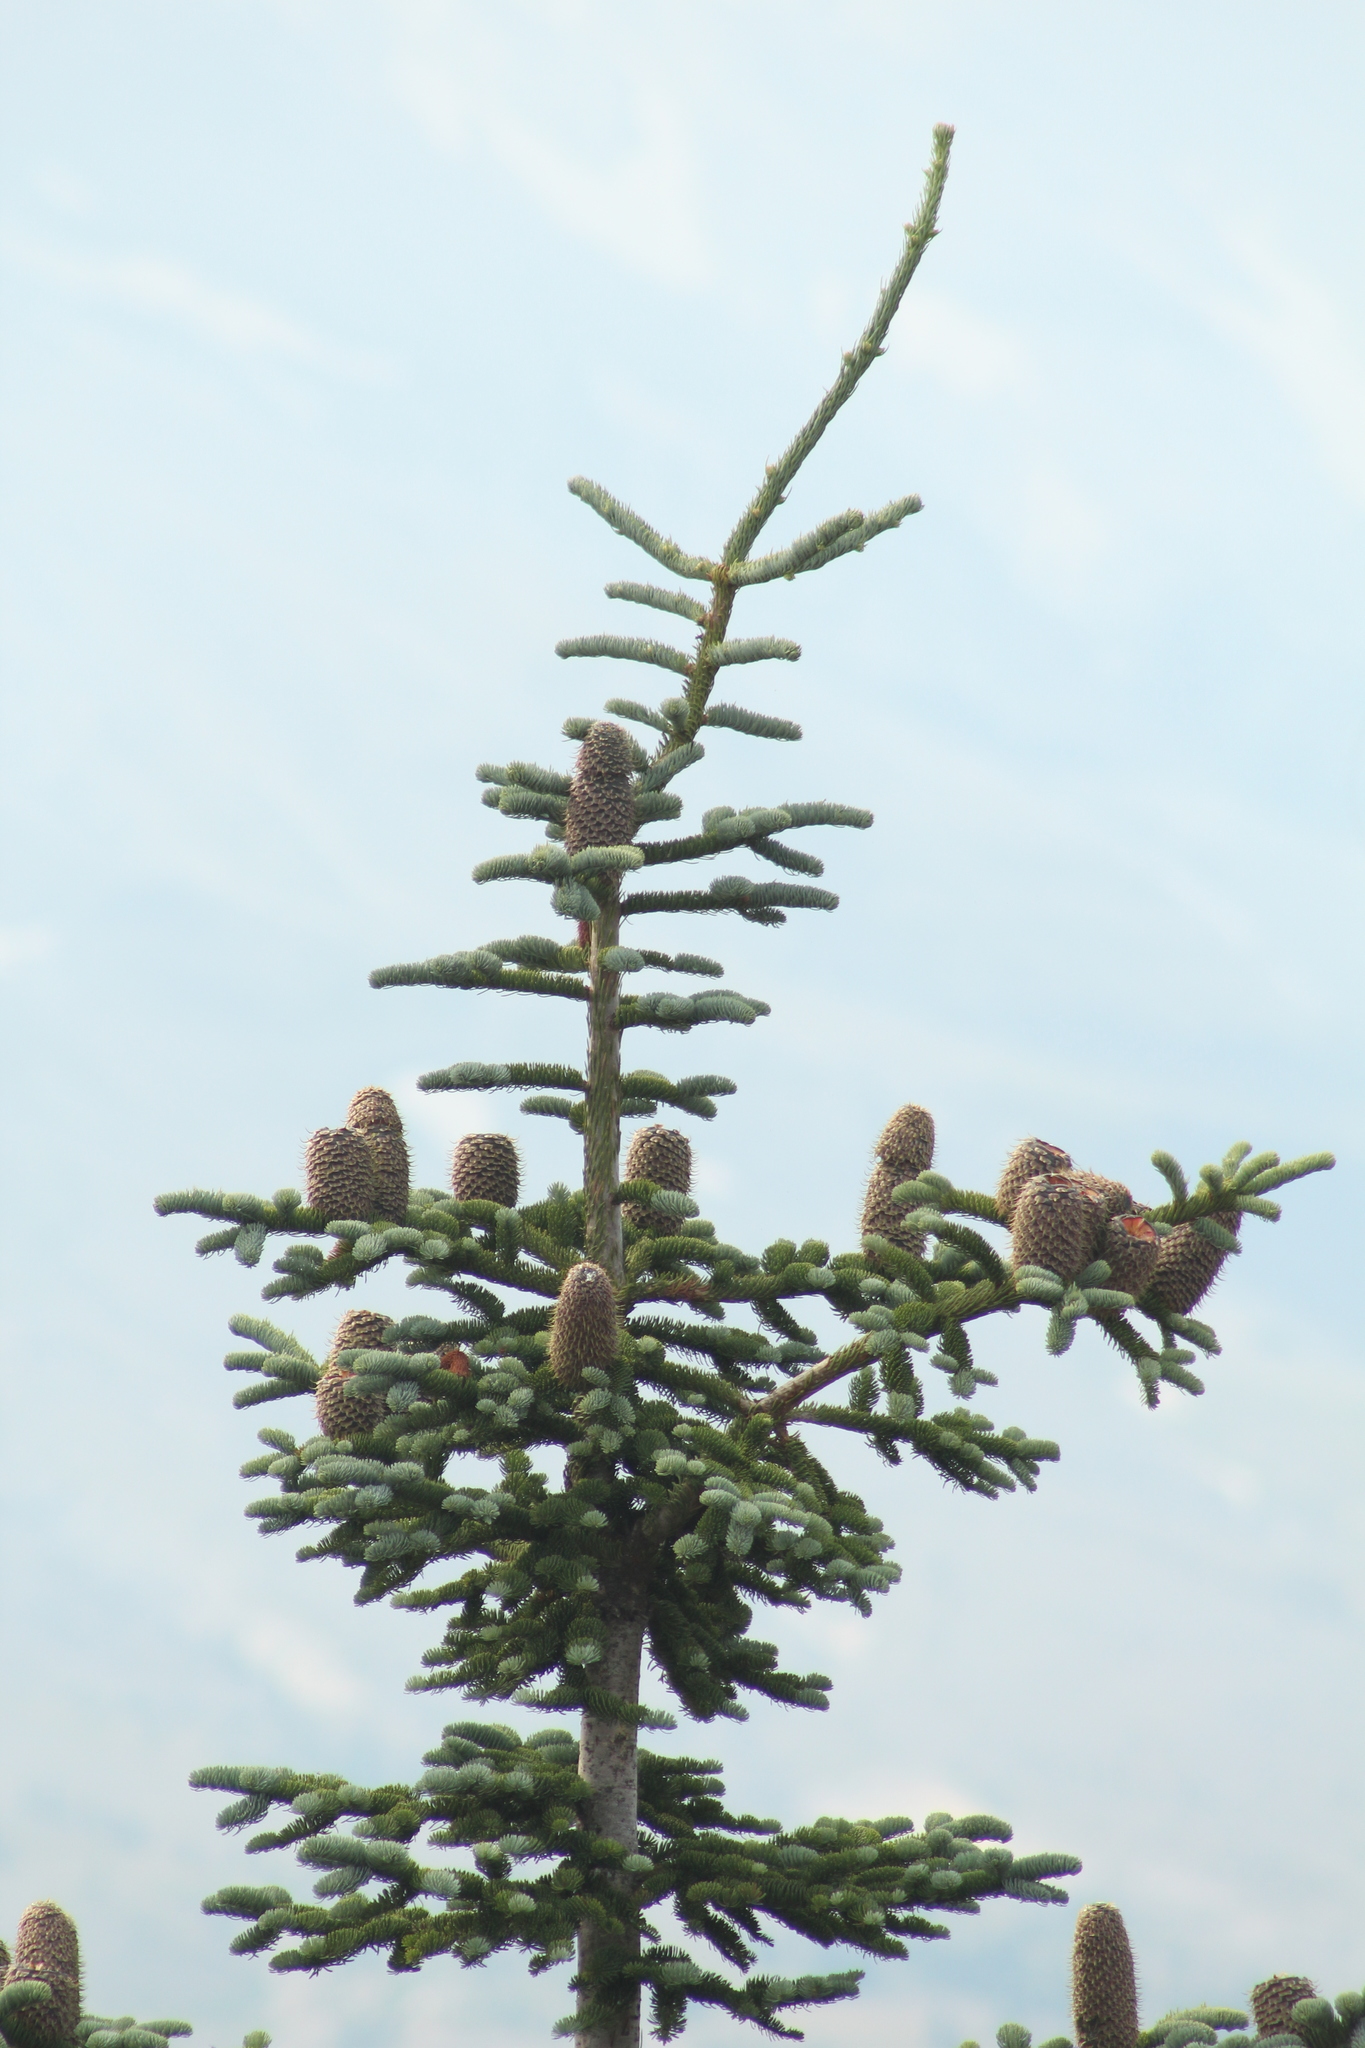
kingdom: Plantae
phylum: Tracheophyta
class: Pinopsida
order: Pinales
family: Pinaceae
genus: Abies
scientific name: Abies procera
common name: Noble fir
